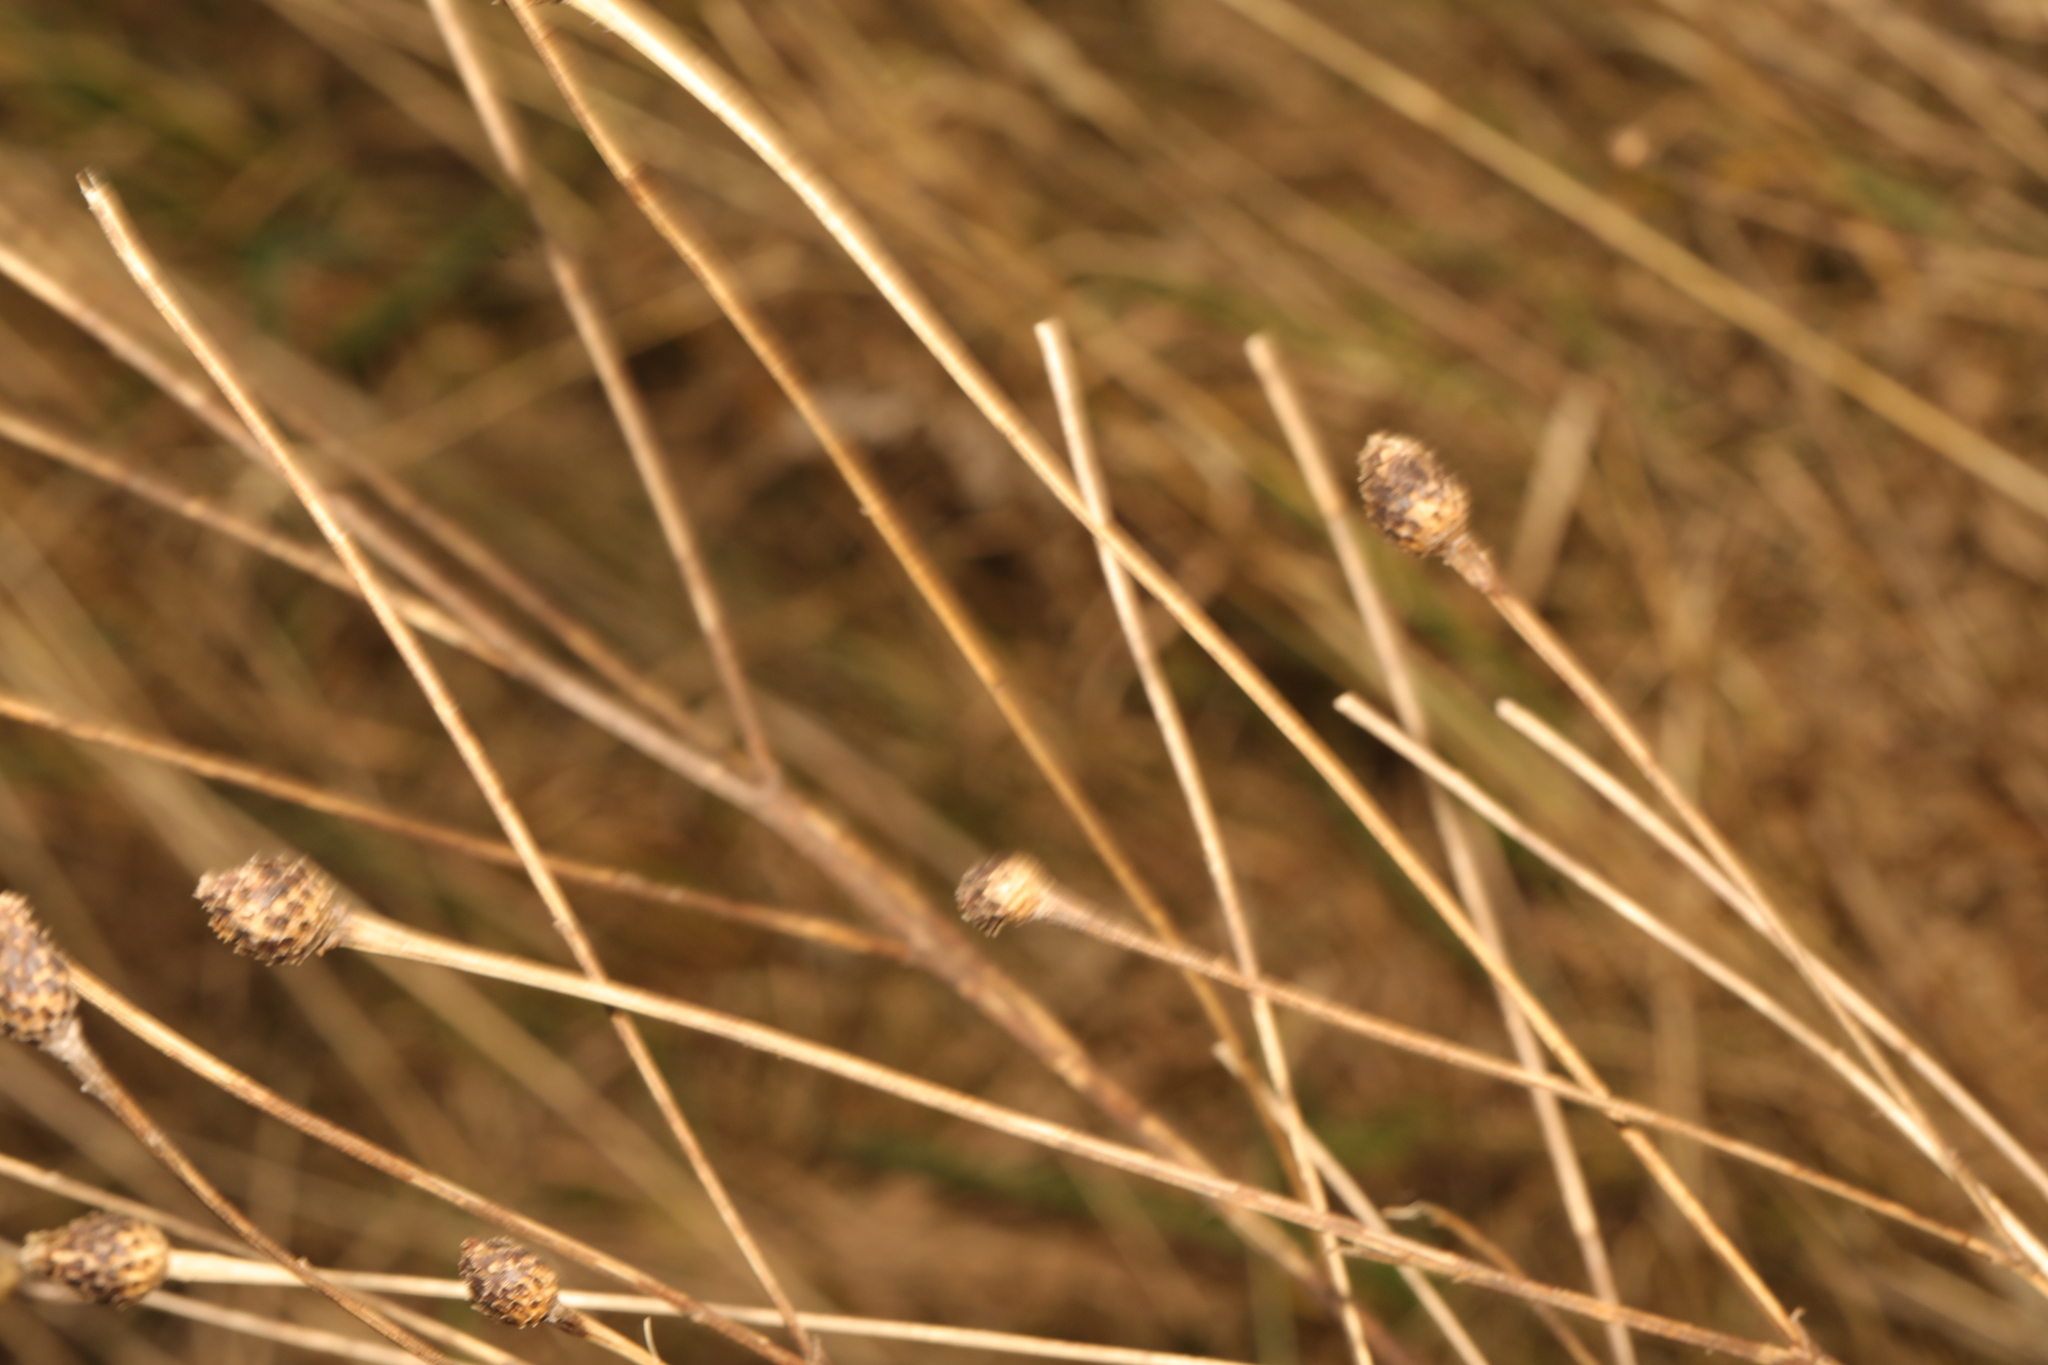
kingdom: Plantae
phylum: Tracheophyta
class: Magnoliopsida
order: Asterales
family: Asteraceae
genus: Centaurea
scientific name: Centaurea nigra
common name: Lesser knapweed
